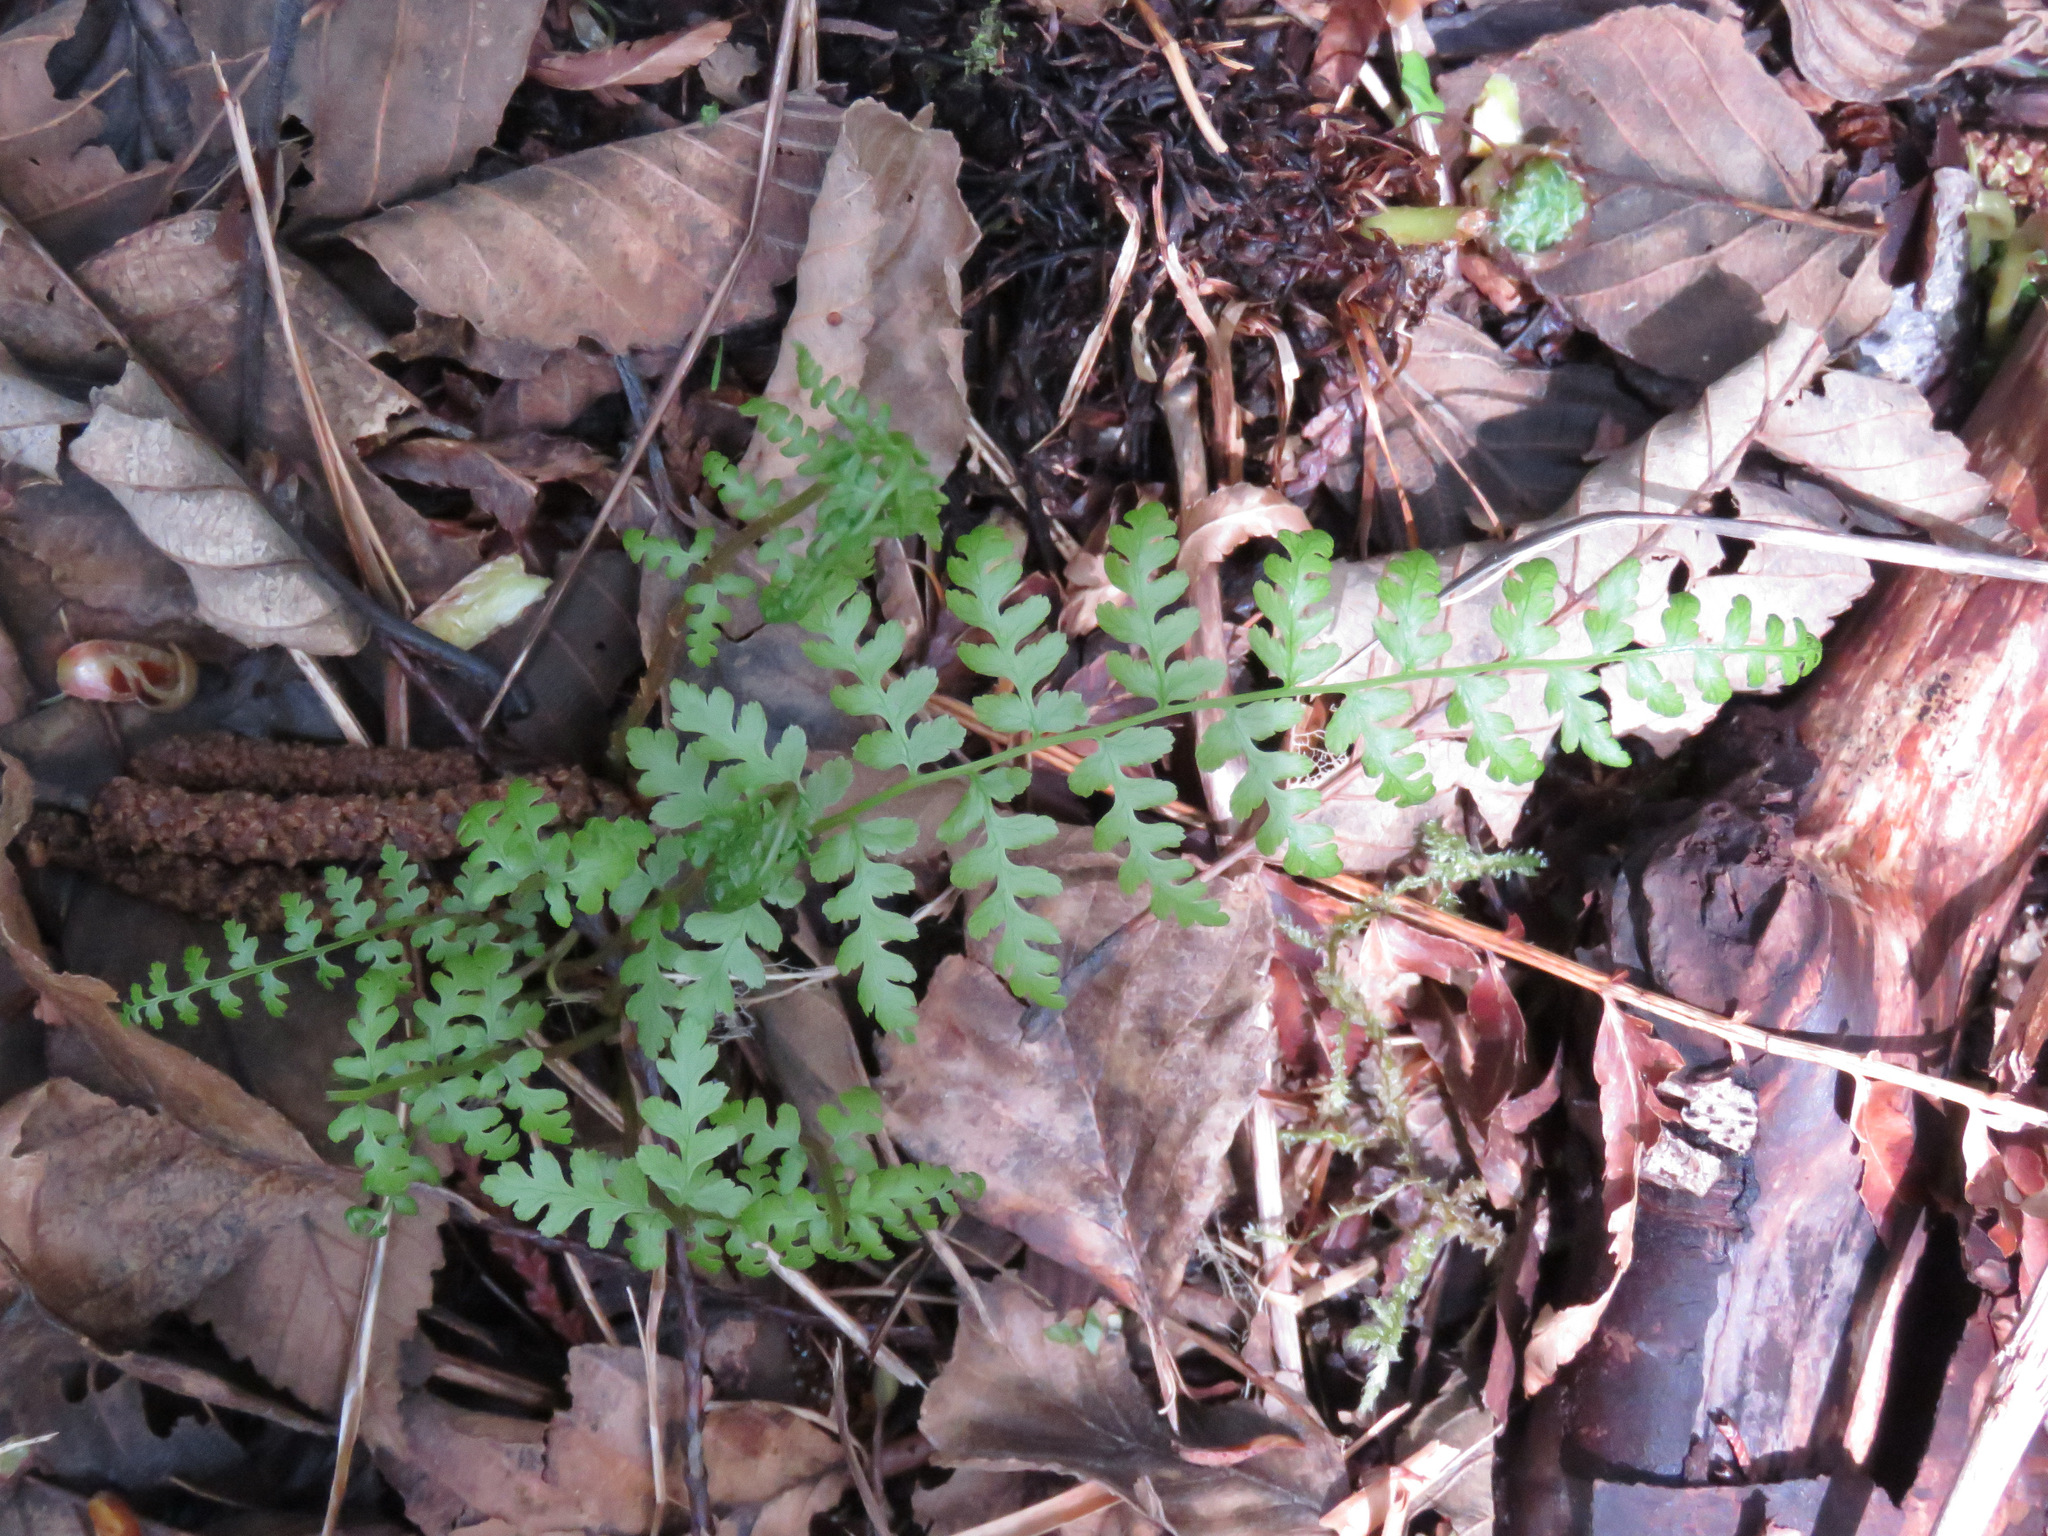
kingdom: Plantae
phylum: Tracheophyta
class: Polypodiopsida
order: Polypodiales
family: Athyriaceae
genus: Athyrium
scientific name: Athyrium cyclosorum
